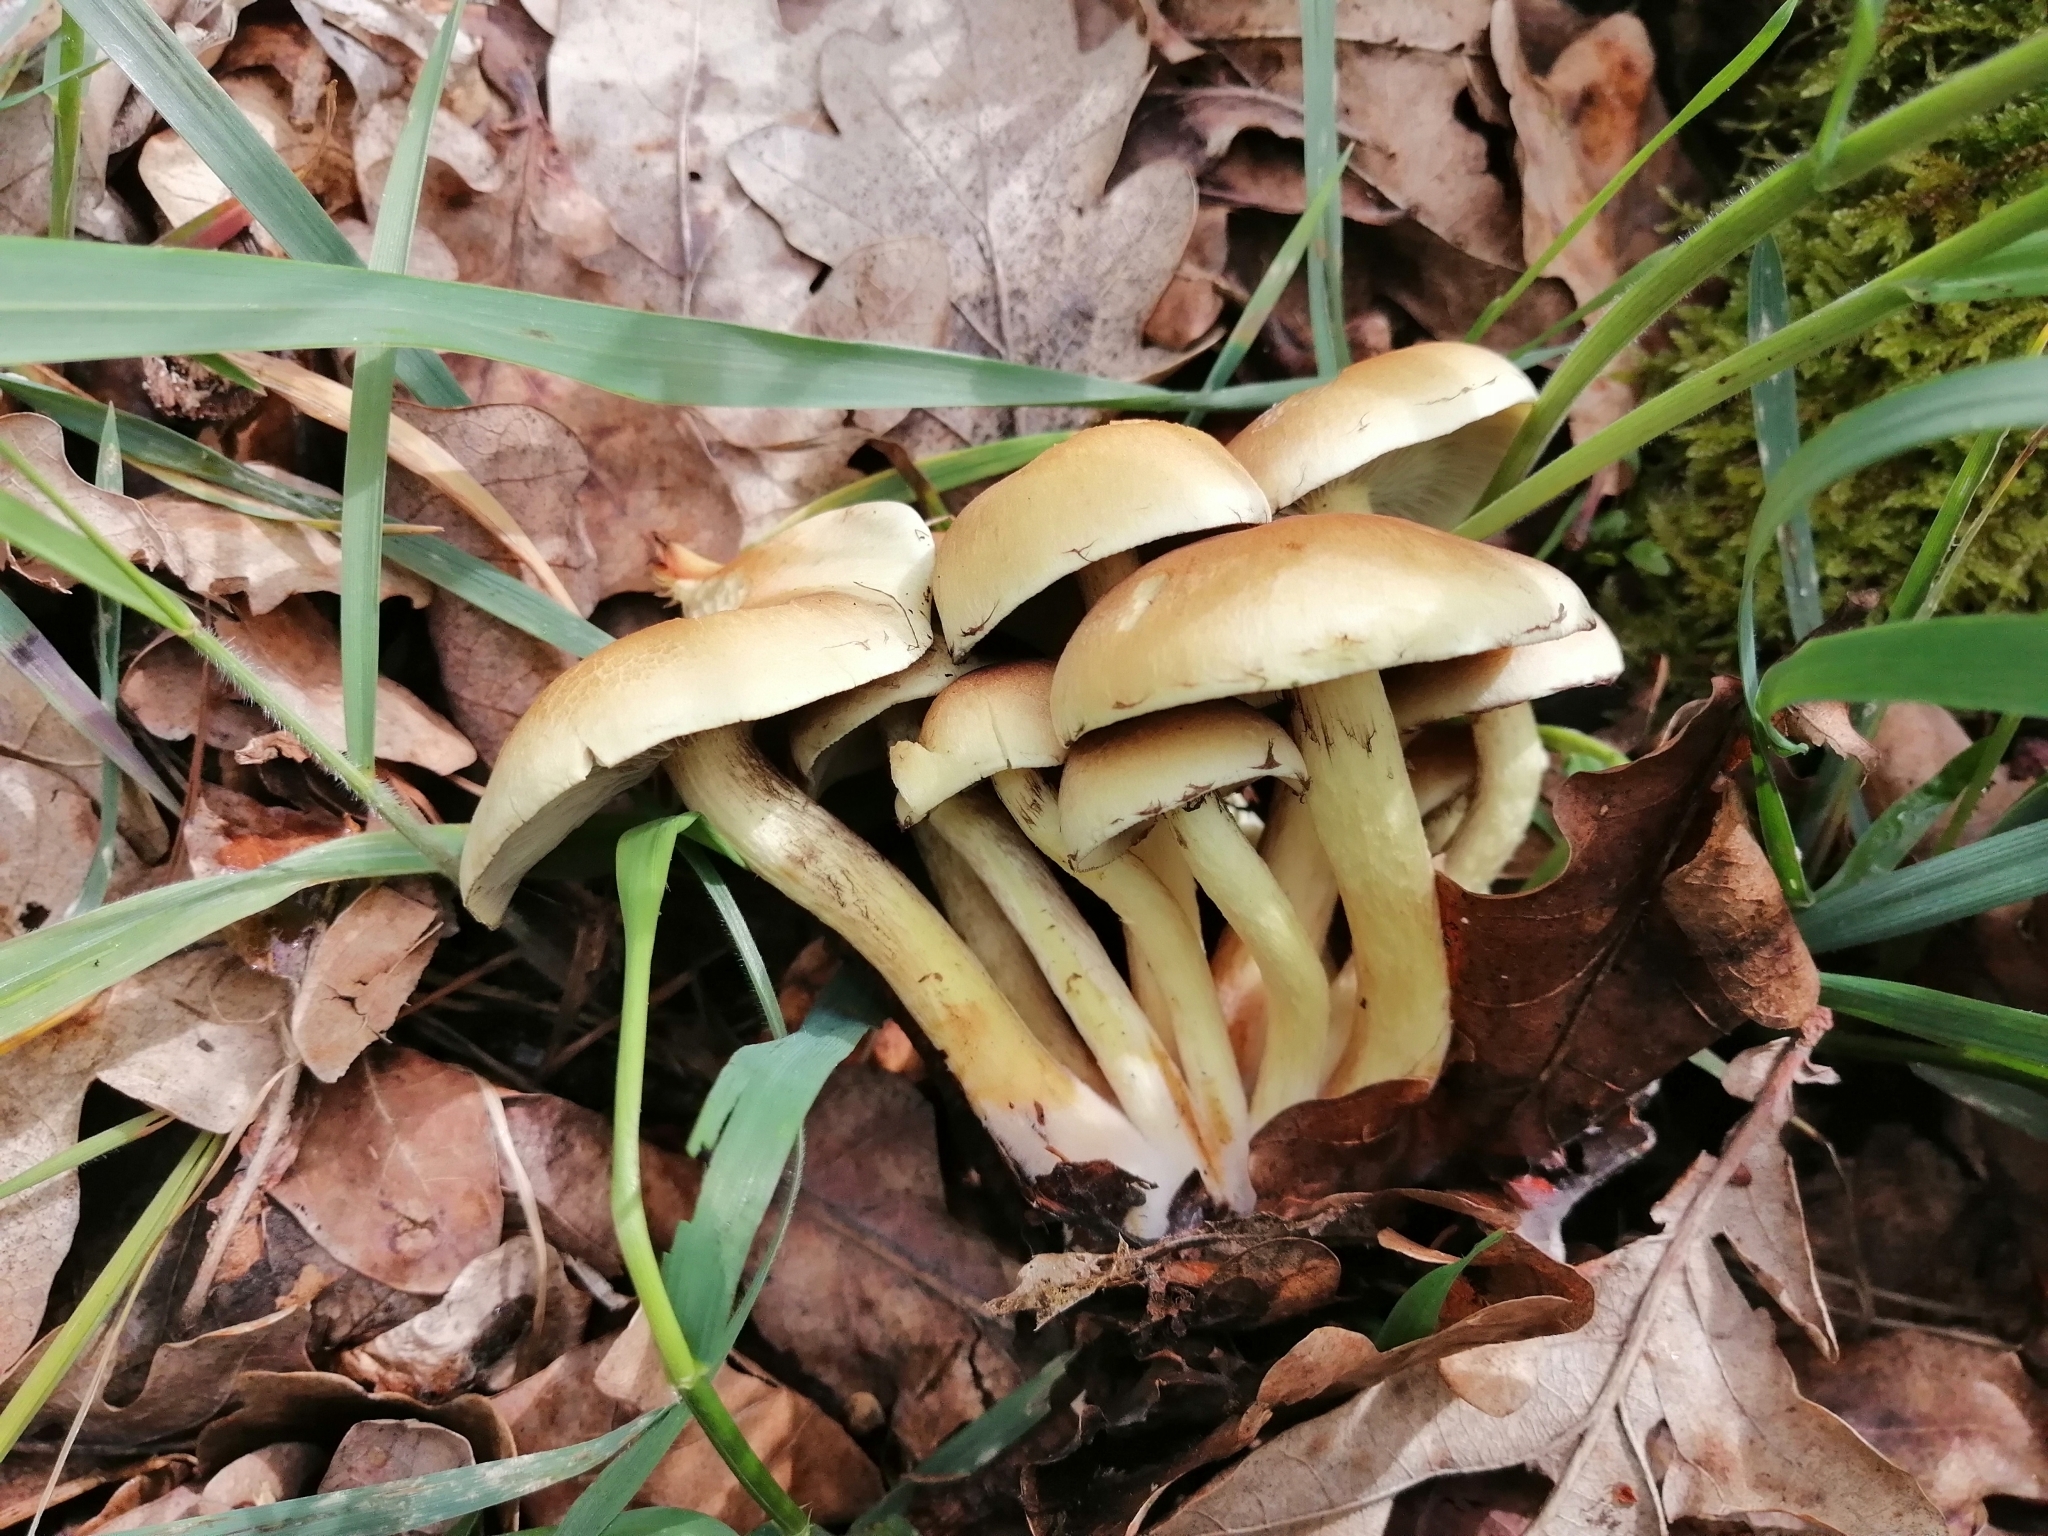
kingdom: Fungi
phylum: Basidiomycota
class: Agaricomycetes
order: Agaricales
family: Strophariaceae
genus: Hypholoma
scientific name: Hypholoma fasciculare
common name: Sulphur tuft
